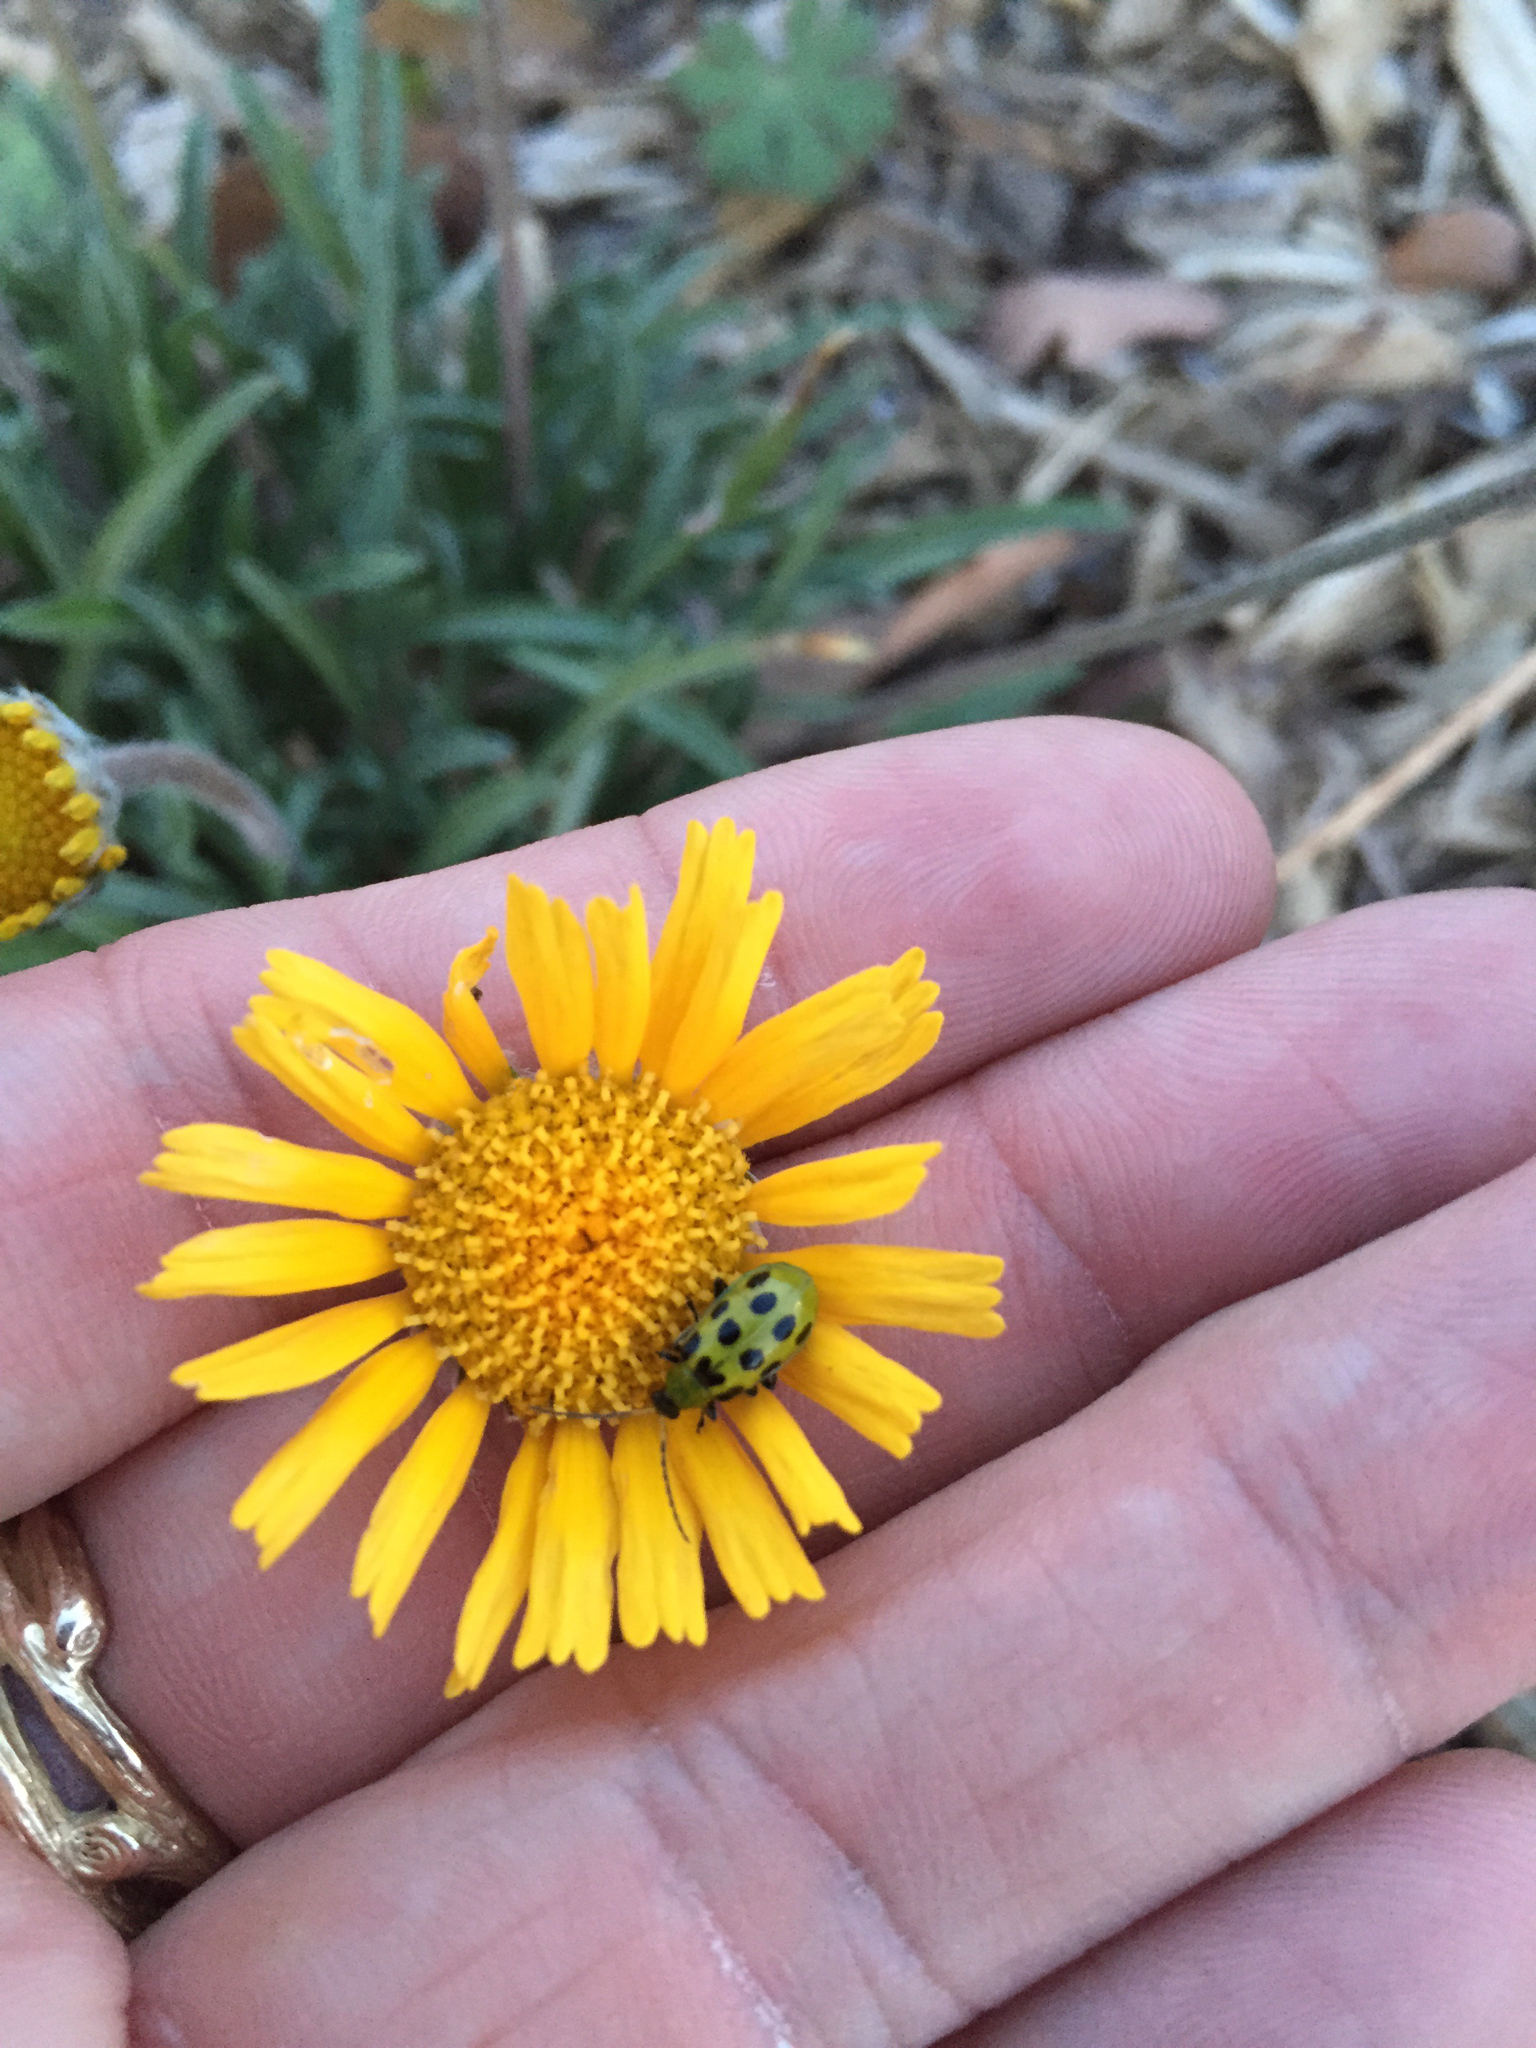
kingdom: Animalia
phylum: Arthropoda
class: Insecta
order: Coleoptera
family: Chrysomelidae
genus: Diabrotica
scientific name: Diabrotica undecimpunctata
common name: Spotted cucumber beetle
